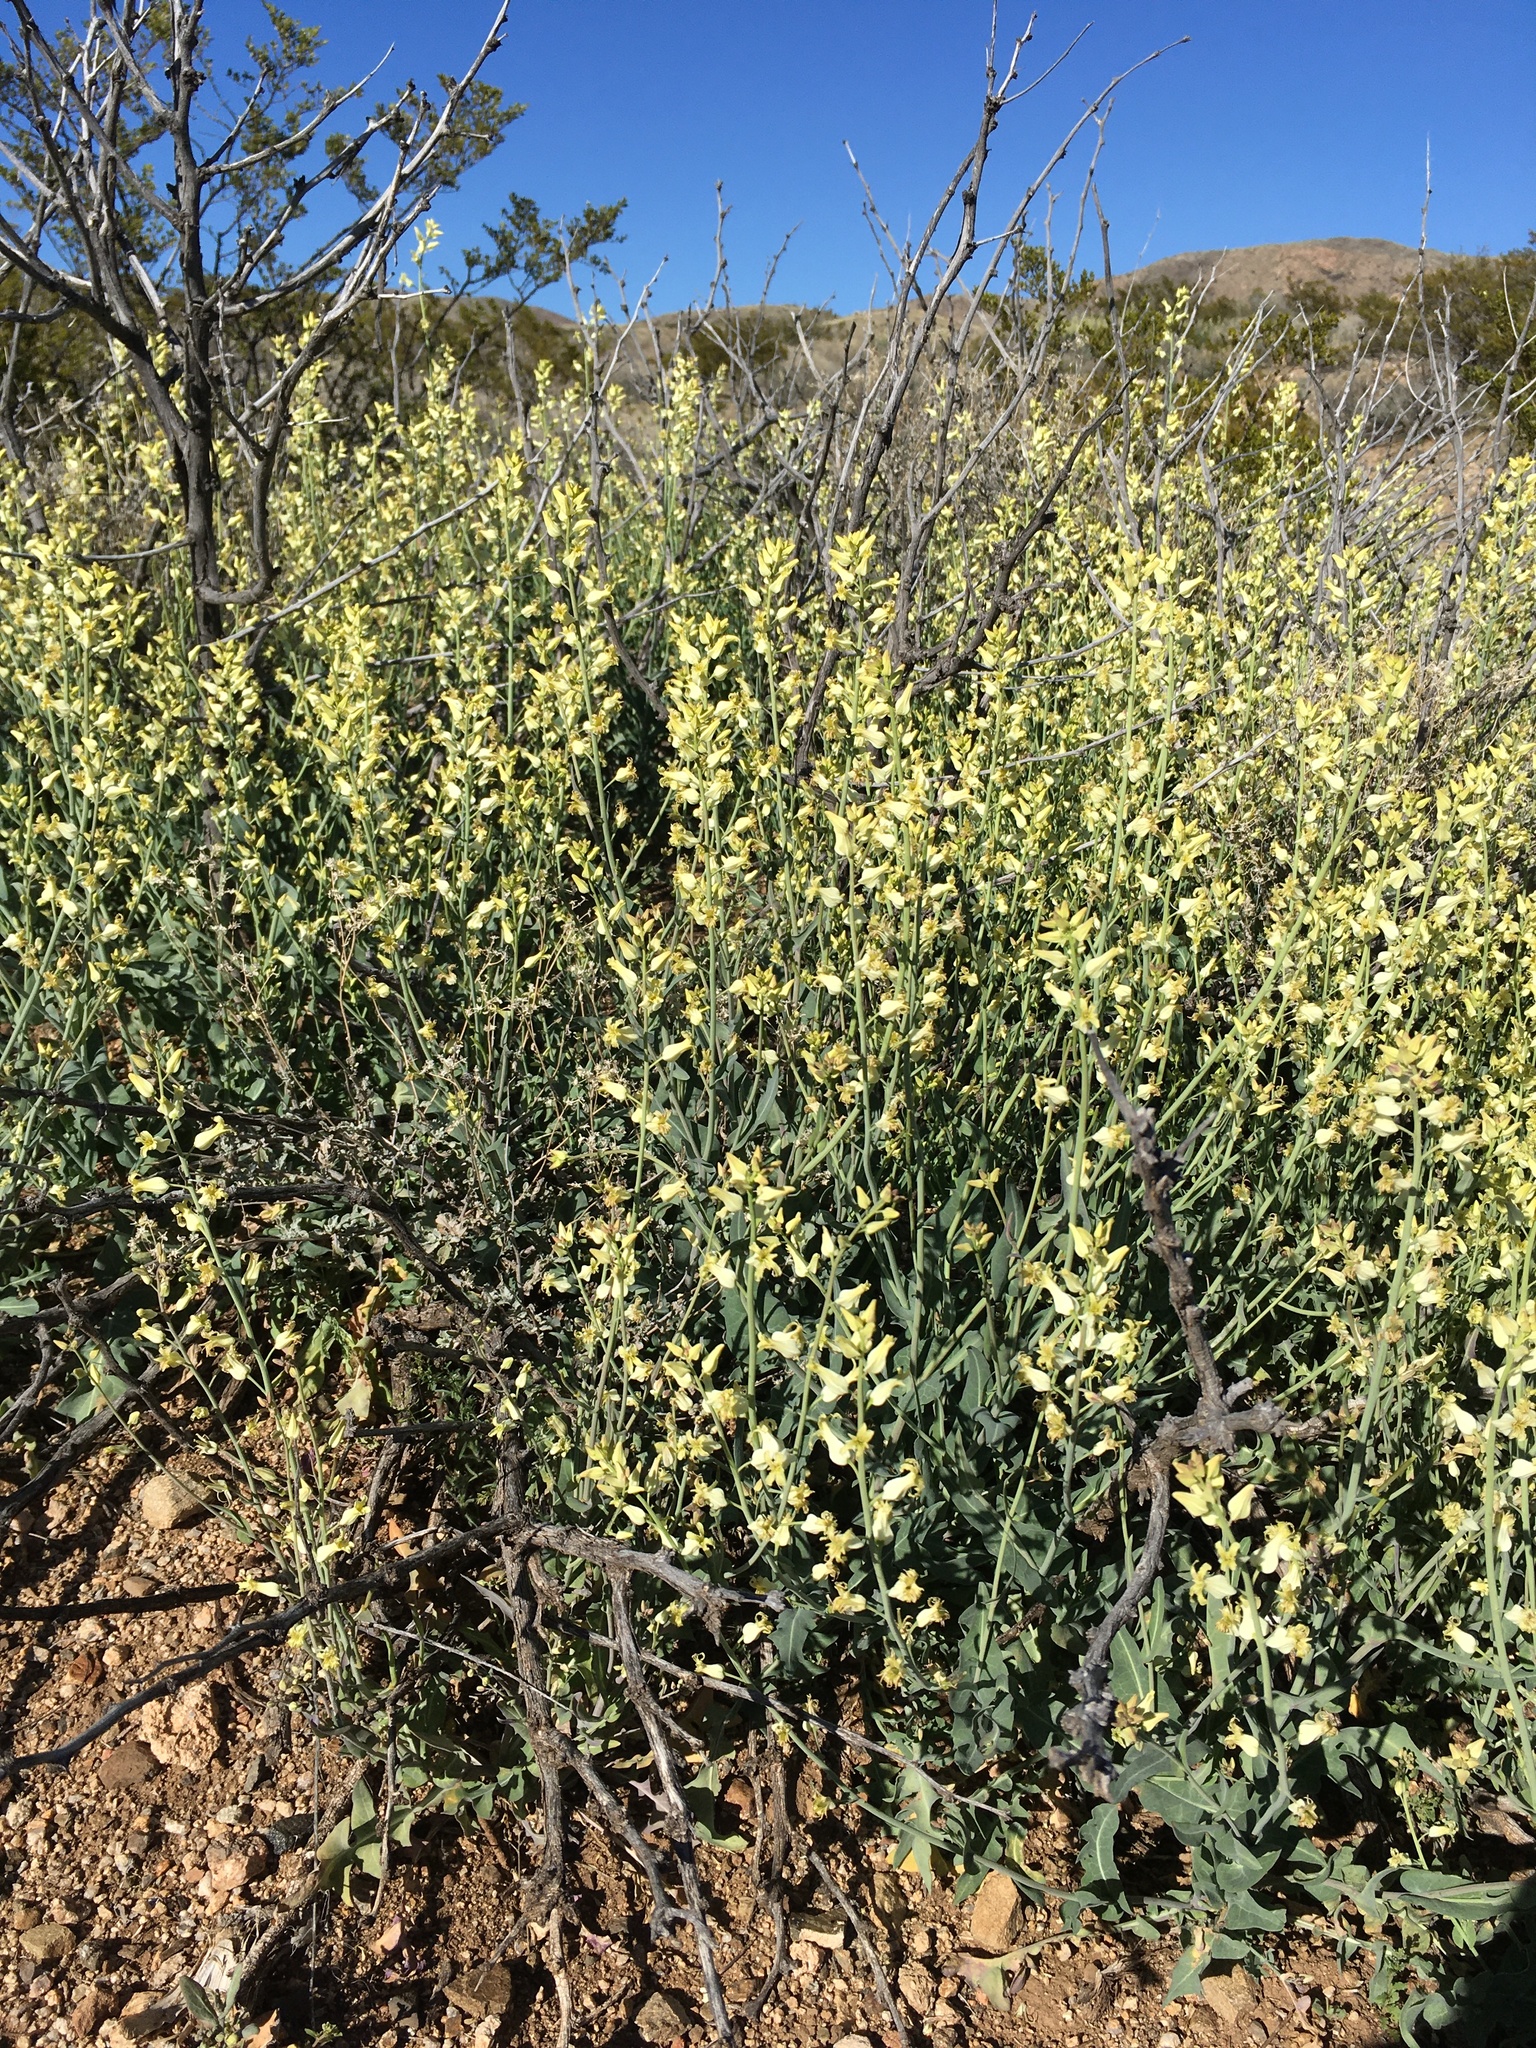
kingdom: Plantae
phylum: Tracheophyta
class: Magnoliopsida
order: Brassicales
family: Brassicaceae
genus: Streptanthus
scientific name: Streptanthus carinatus
